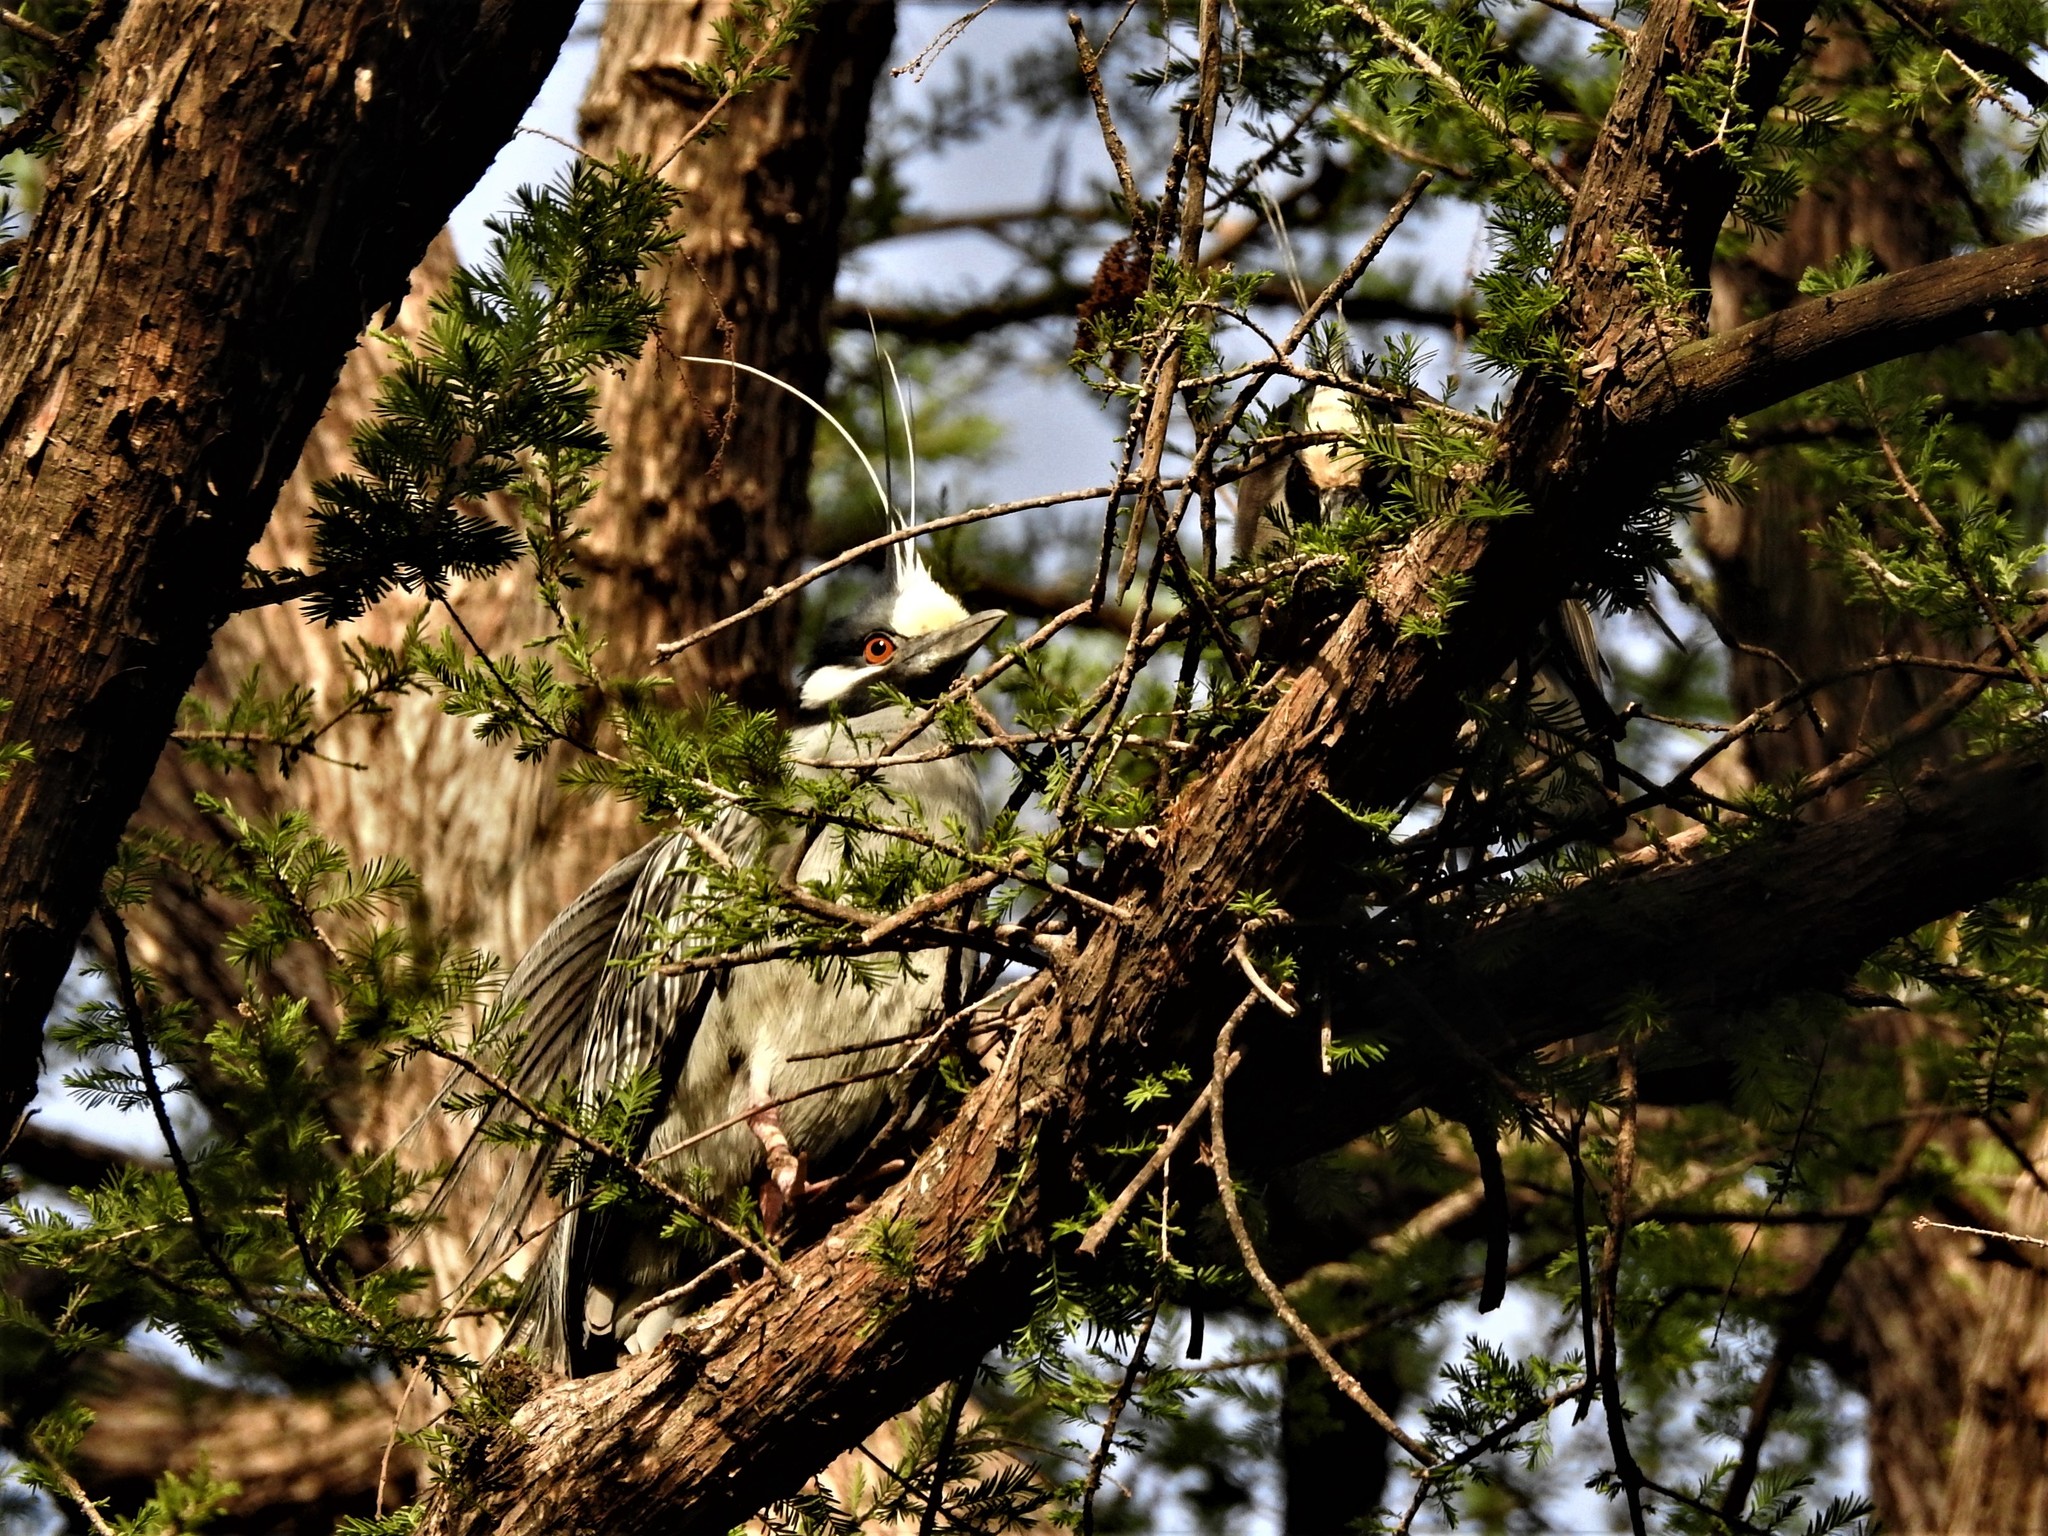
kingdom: Animalia
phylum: Chordata
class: Aves
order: Pelecaniformes
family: Ardeidae
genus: Nyctanassa
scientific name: Nyctanassa violacea
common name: Yellow-crowned night heron
